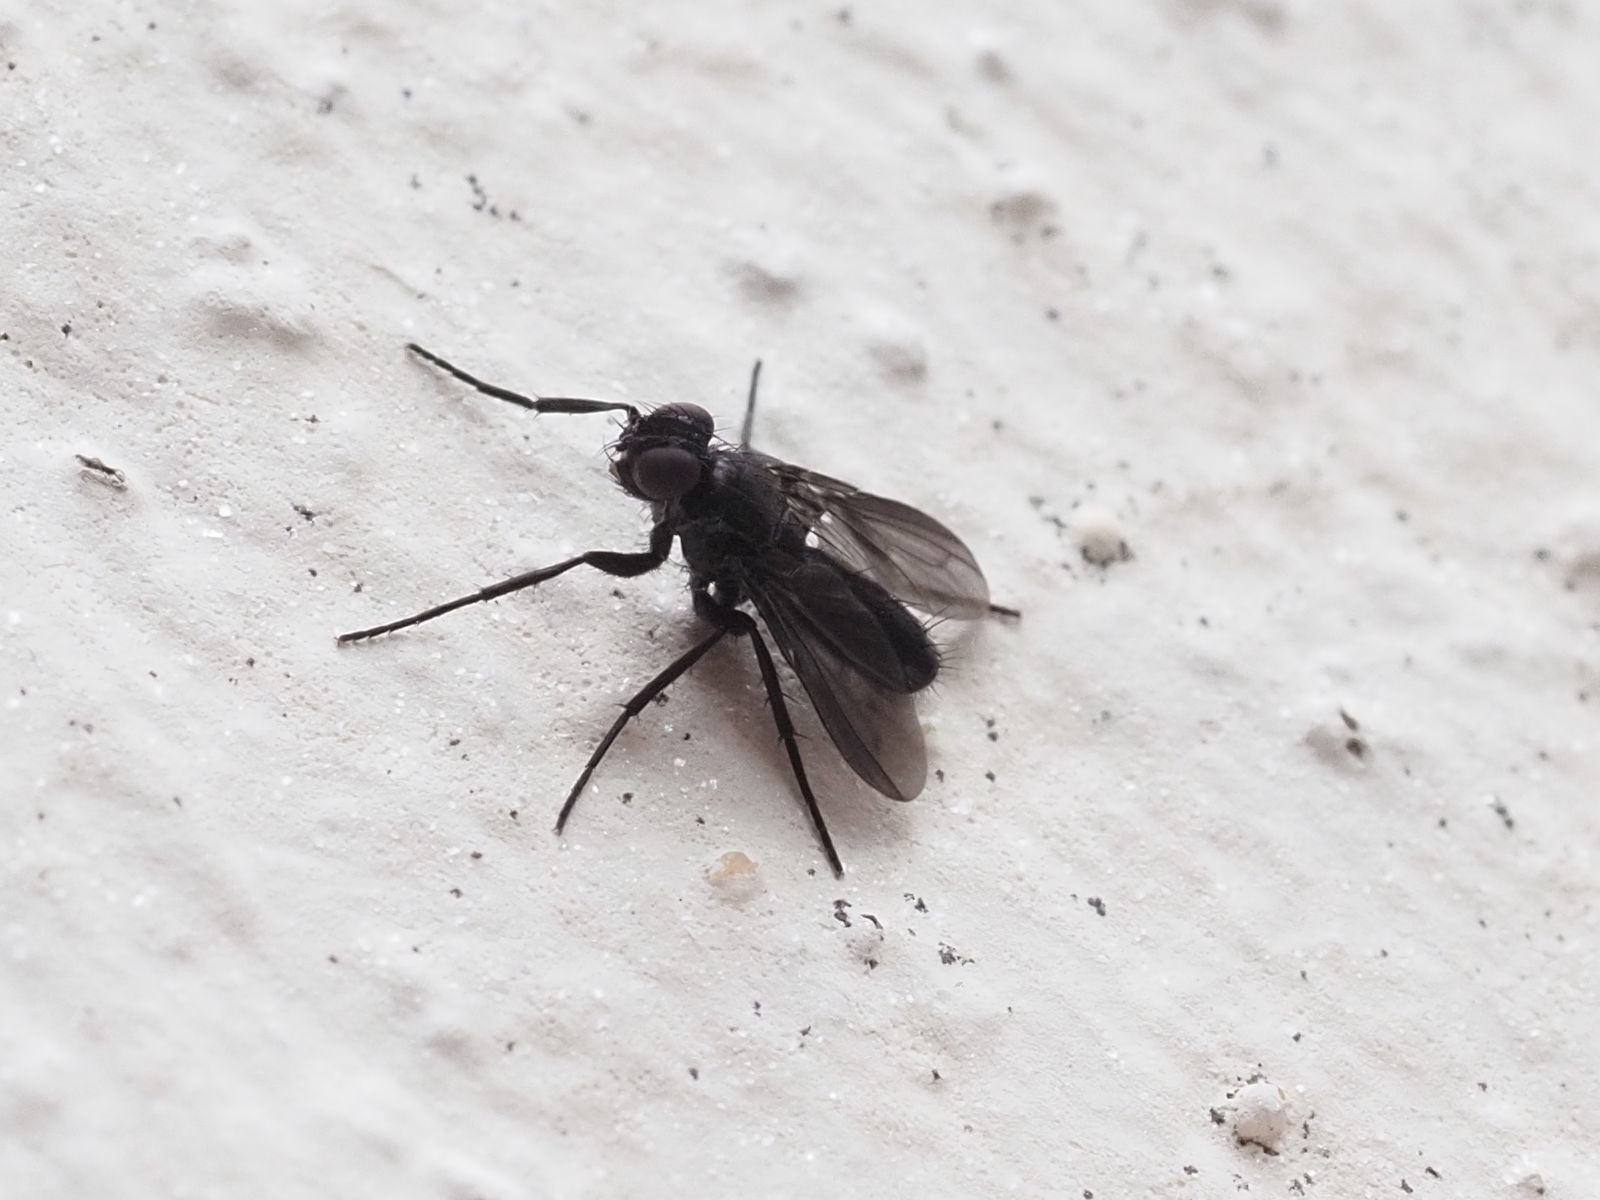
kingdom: Animalia
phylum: Arthropoda
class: Insecta
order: Diptera
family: Calliphoridae
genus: Melanophora
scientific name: Melanophora roralis
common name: Smoky-winged woodlouse-fly
